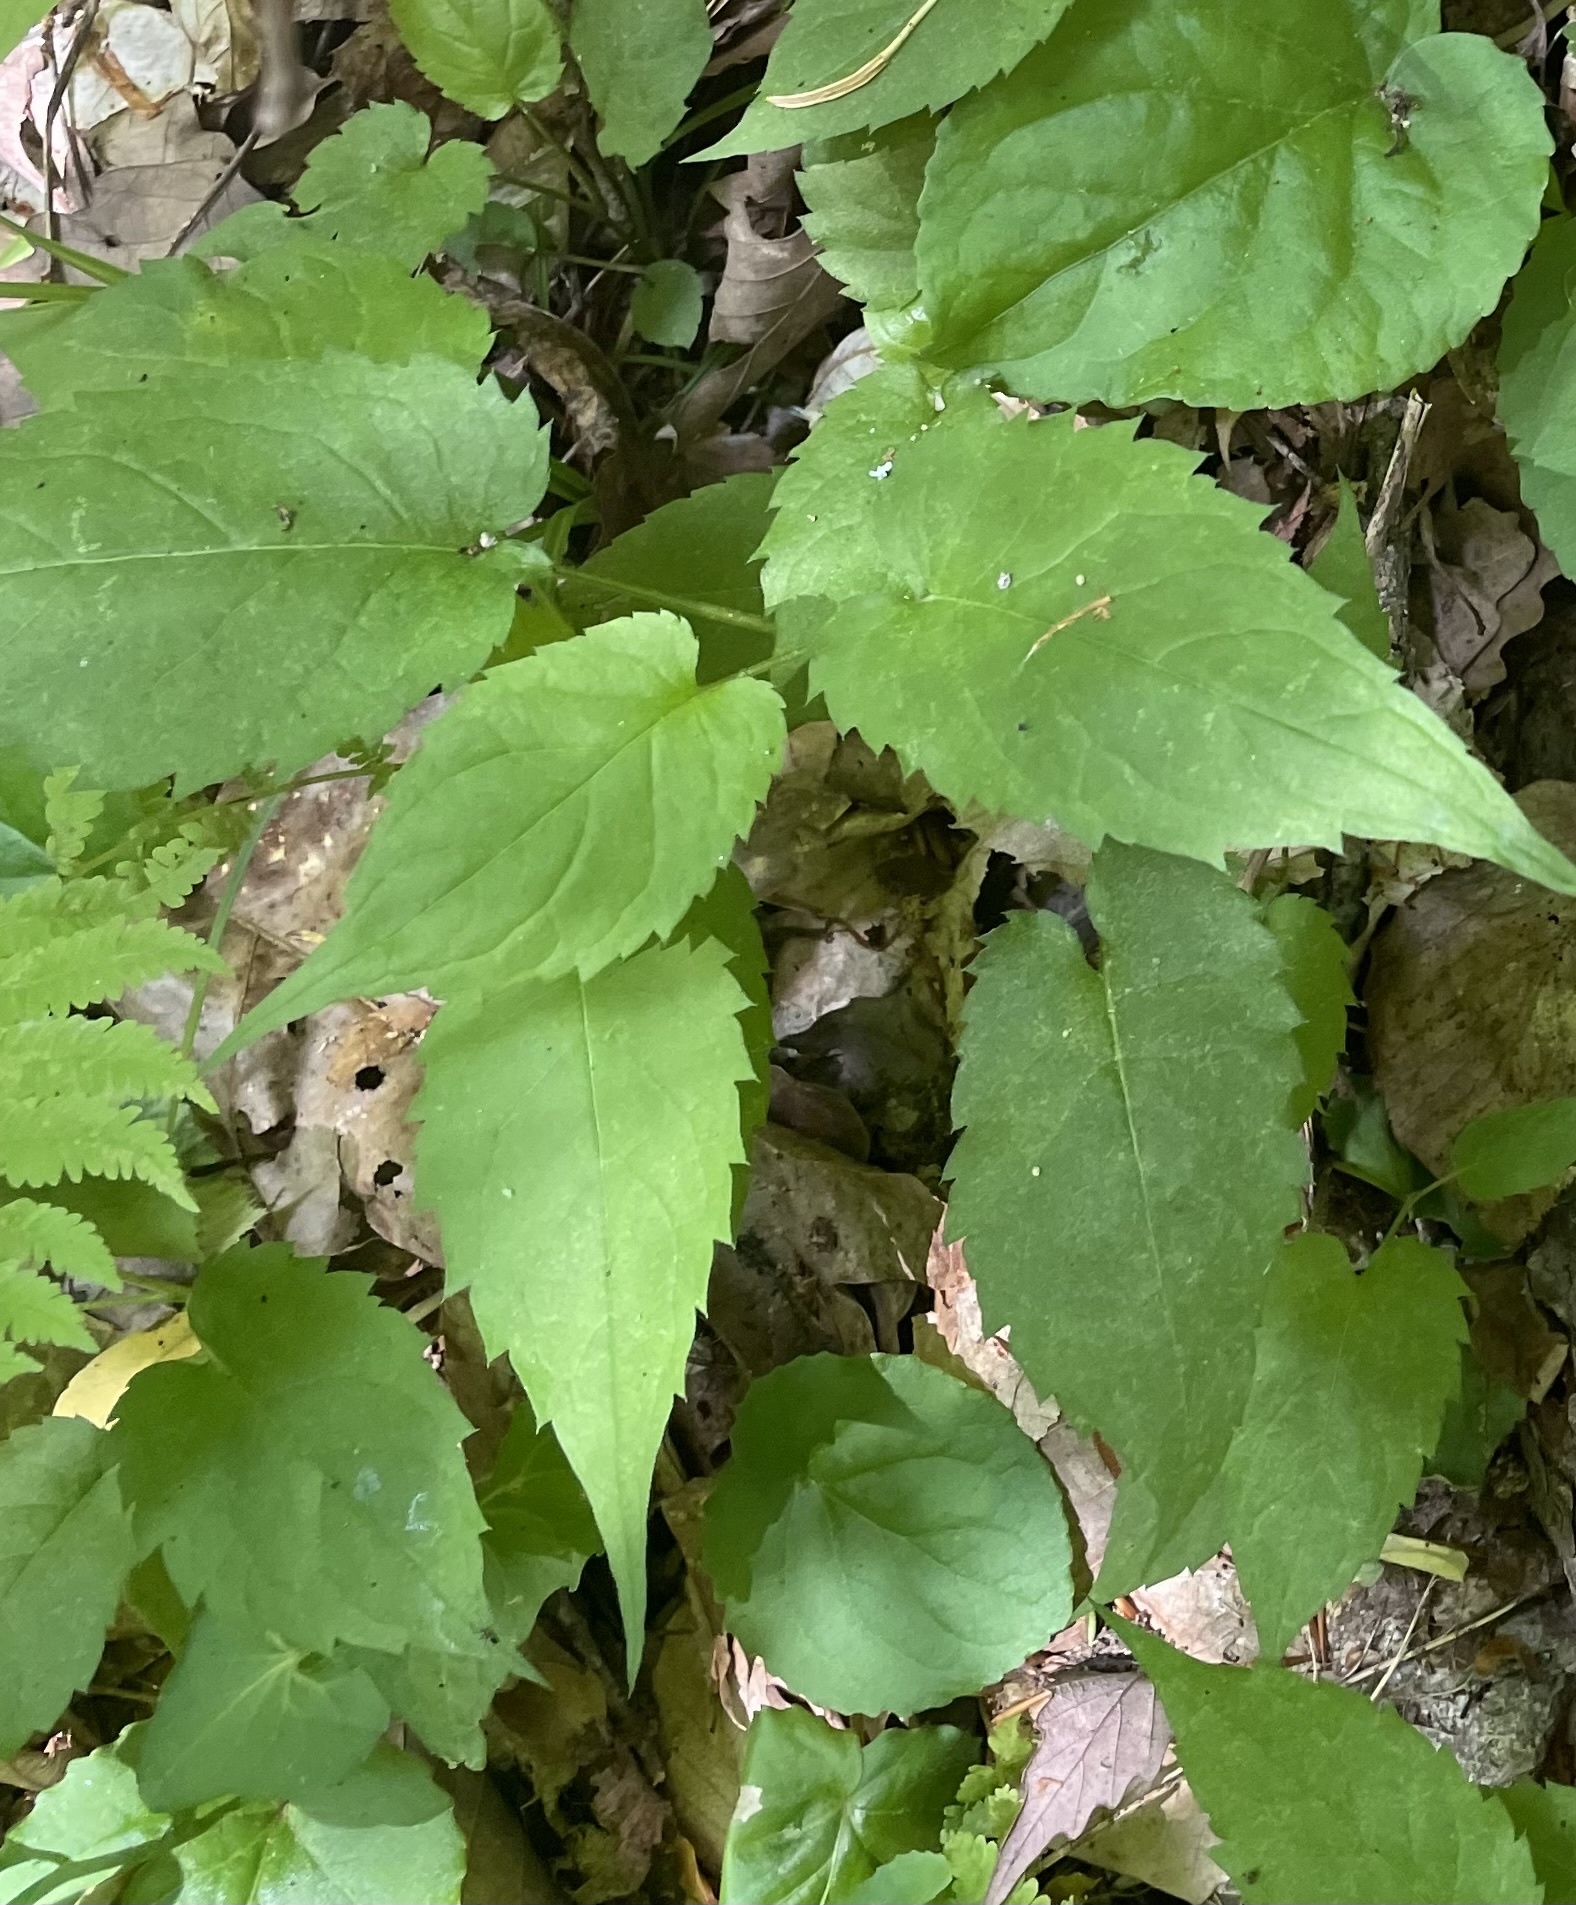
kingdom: Plantae
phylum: Tracheophyta
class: Magnoliopsida
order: Asterales
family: Asteraceae
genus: Eurybia
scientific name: Eurybia divaricata
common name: White wood aster
